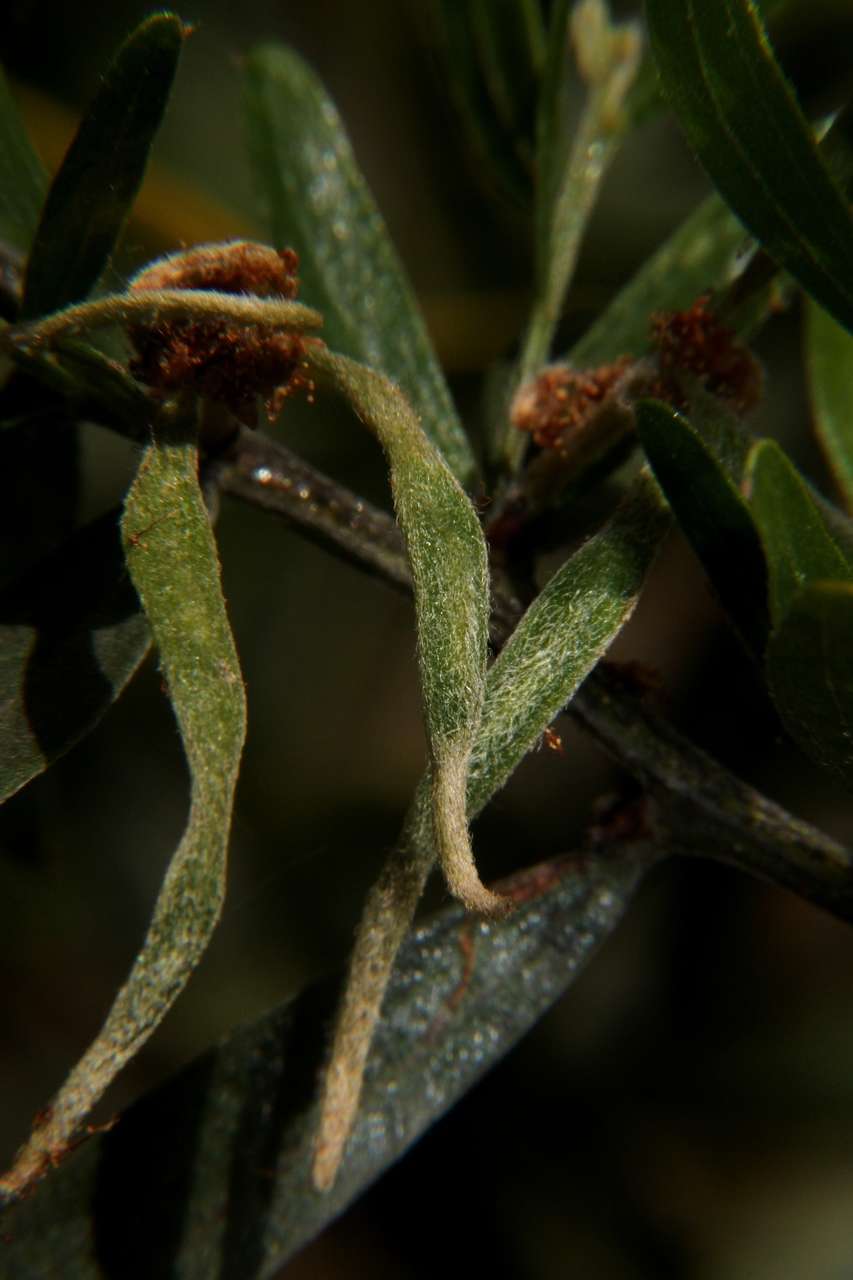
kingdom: Plantae
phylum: Tracheophyta
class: Magnoliopsida
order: Fabales
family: Fabaceae
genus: Acacia
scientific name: Acacia rostriformis
